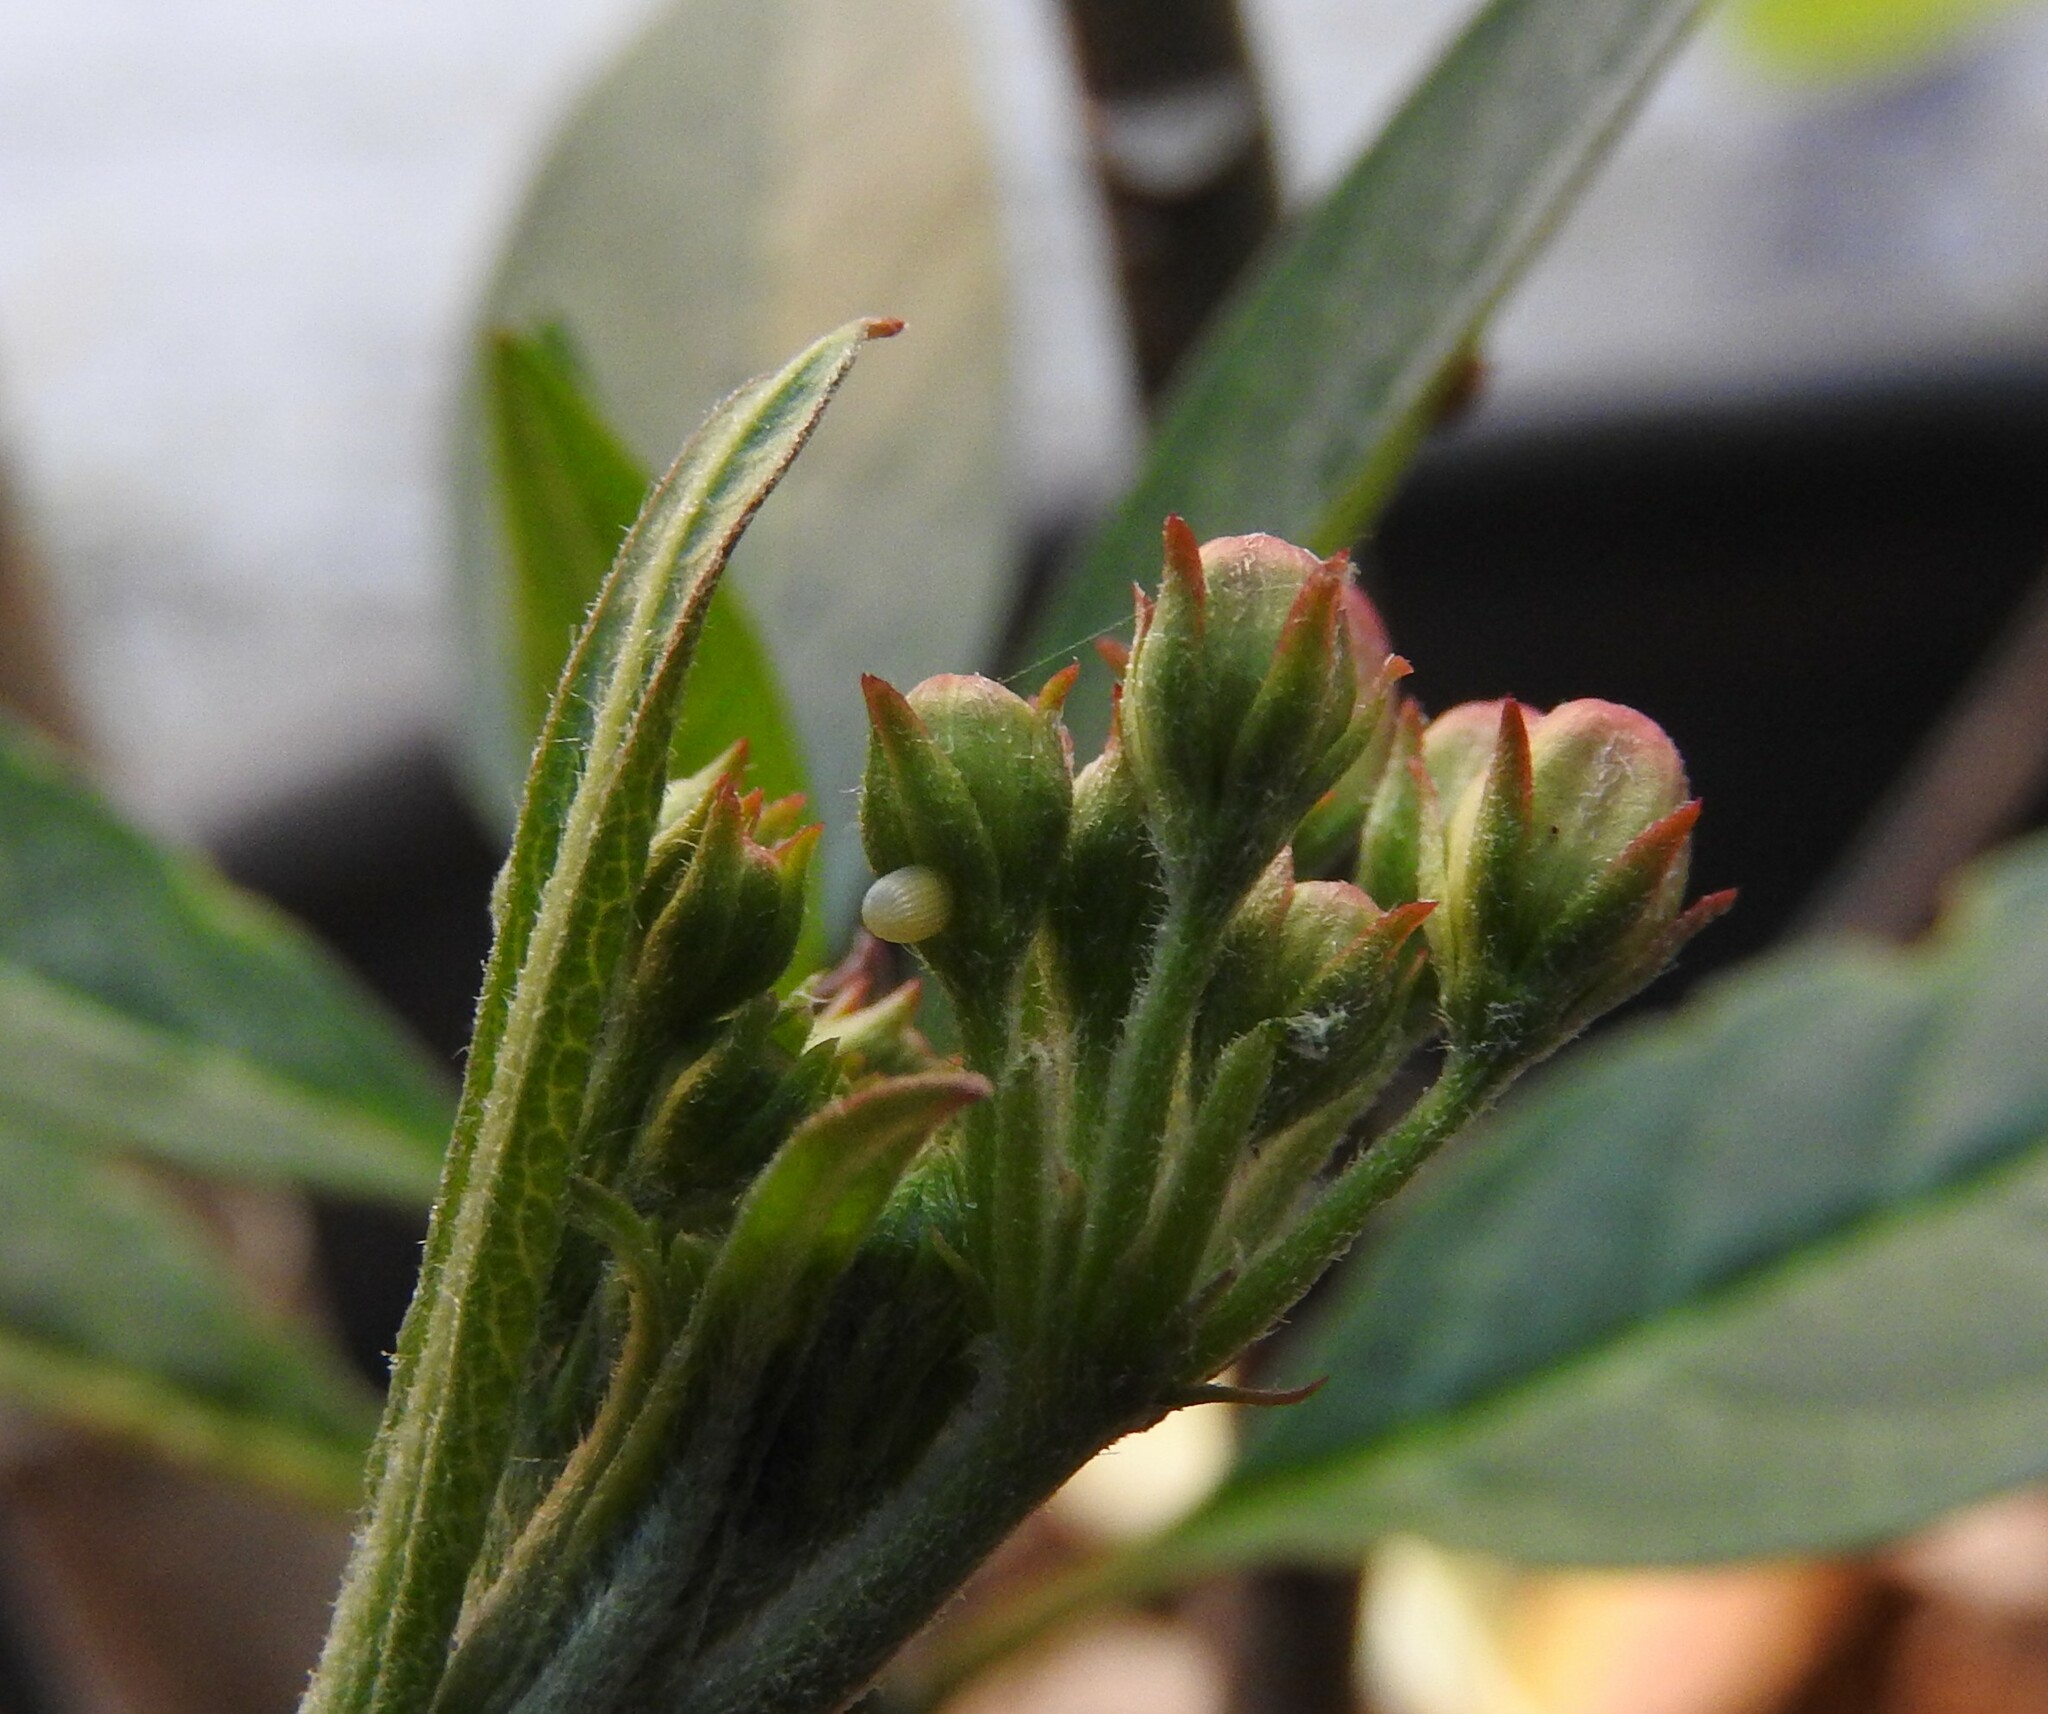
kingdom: Animalia
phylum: Arthropoda
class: Insecta
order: Lepidoptera
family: Nymphalidae
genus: Danaus
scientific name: Danaus plexippus
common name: Monarch
